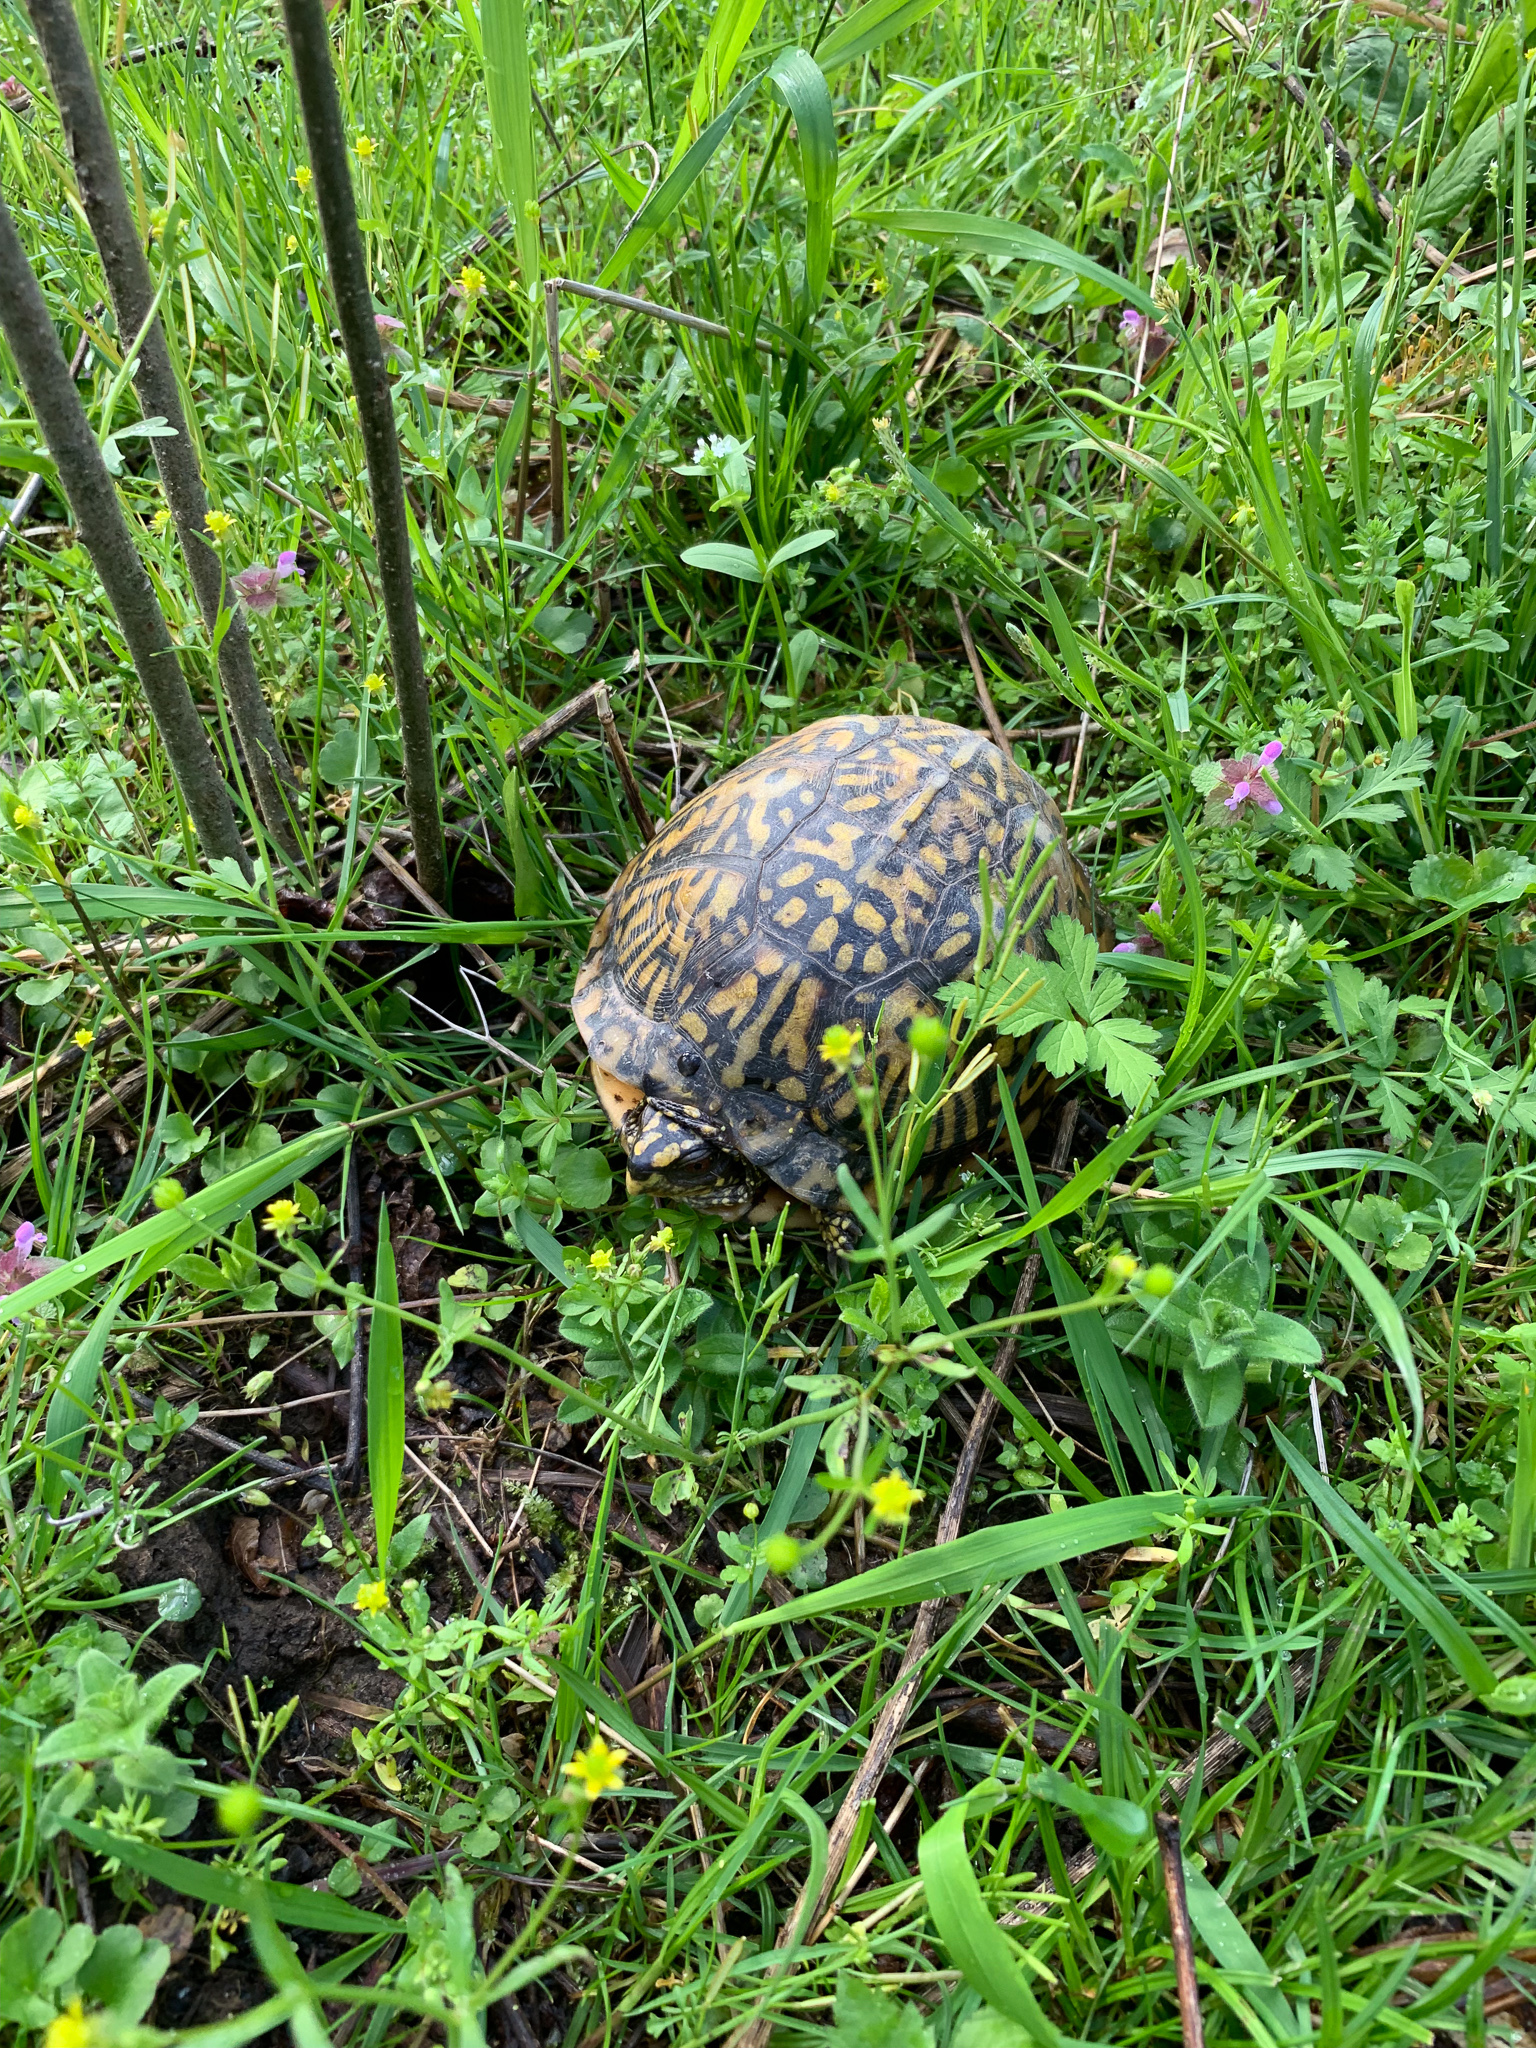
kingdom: Animalia
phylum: Chordata
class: Testudines
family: Emydidae
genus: Terrapene
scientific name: Terrapene carolina
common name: Common box turtle
